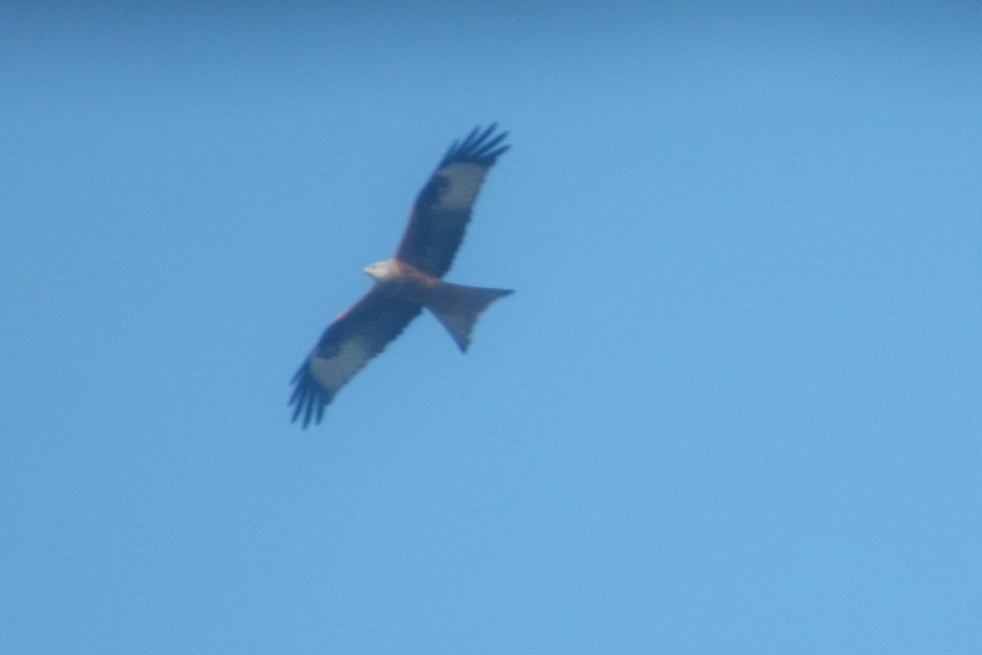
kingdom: Animalia
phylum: Chordata
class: Aves
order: Accipitriformes
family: Accipitridae
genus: Milvus
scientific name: Milvus milvus
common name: Red kite
